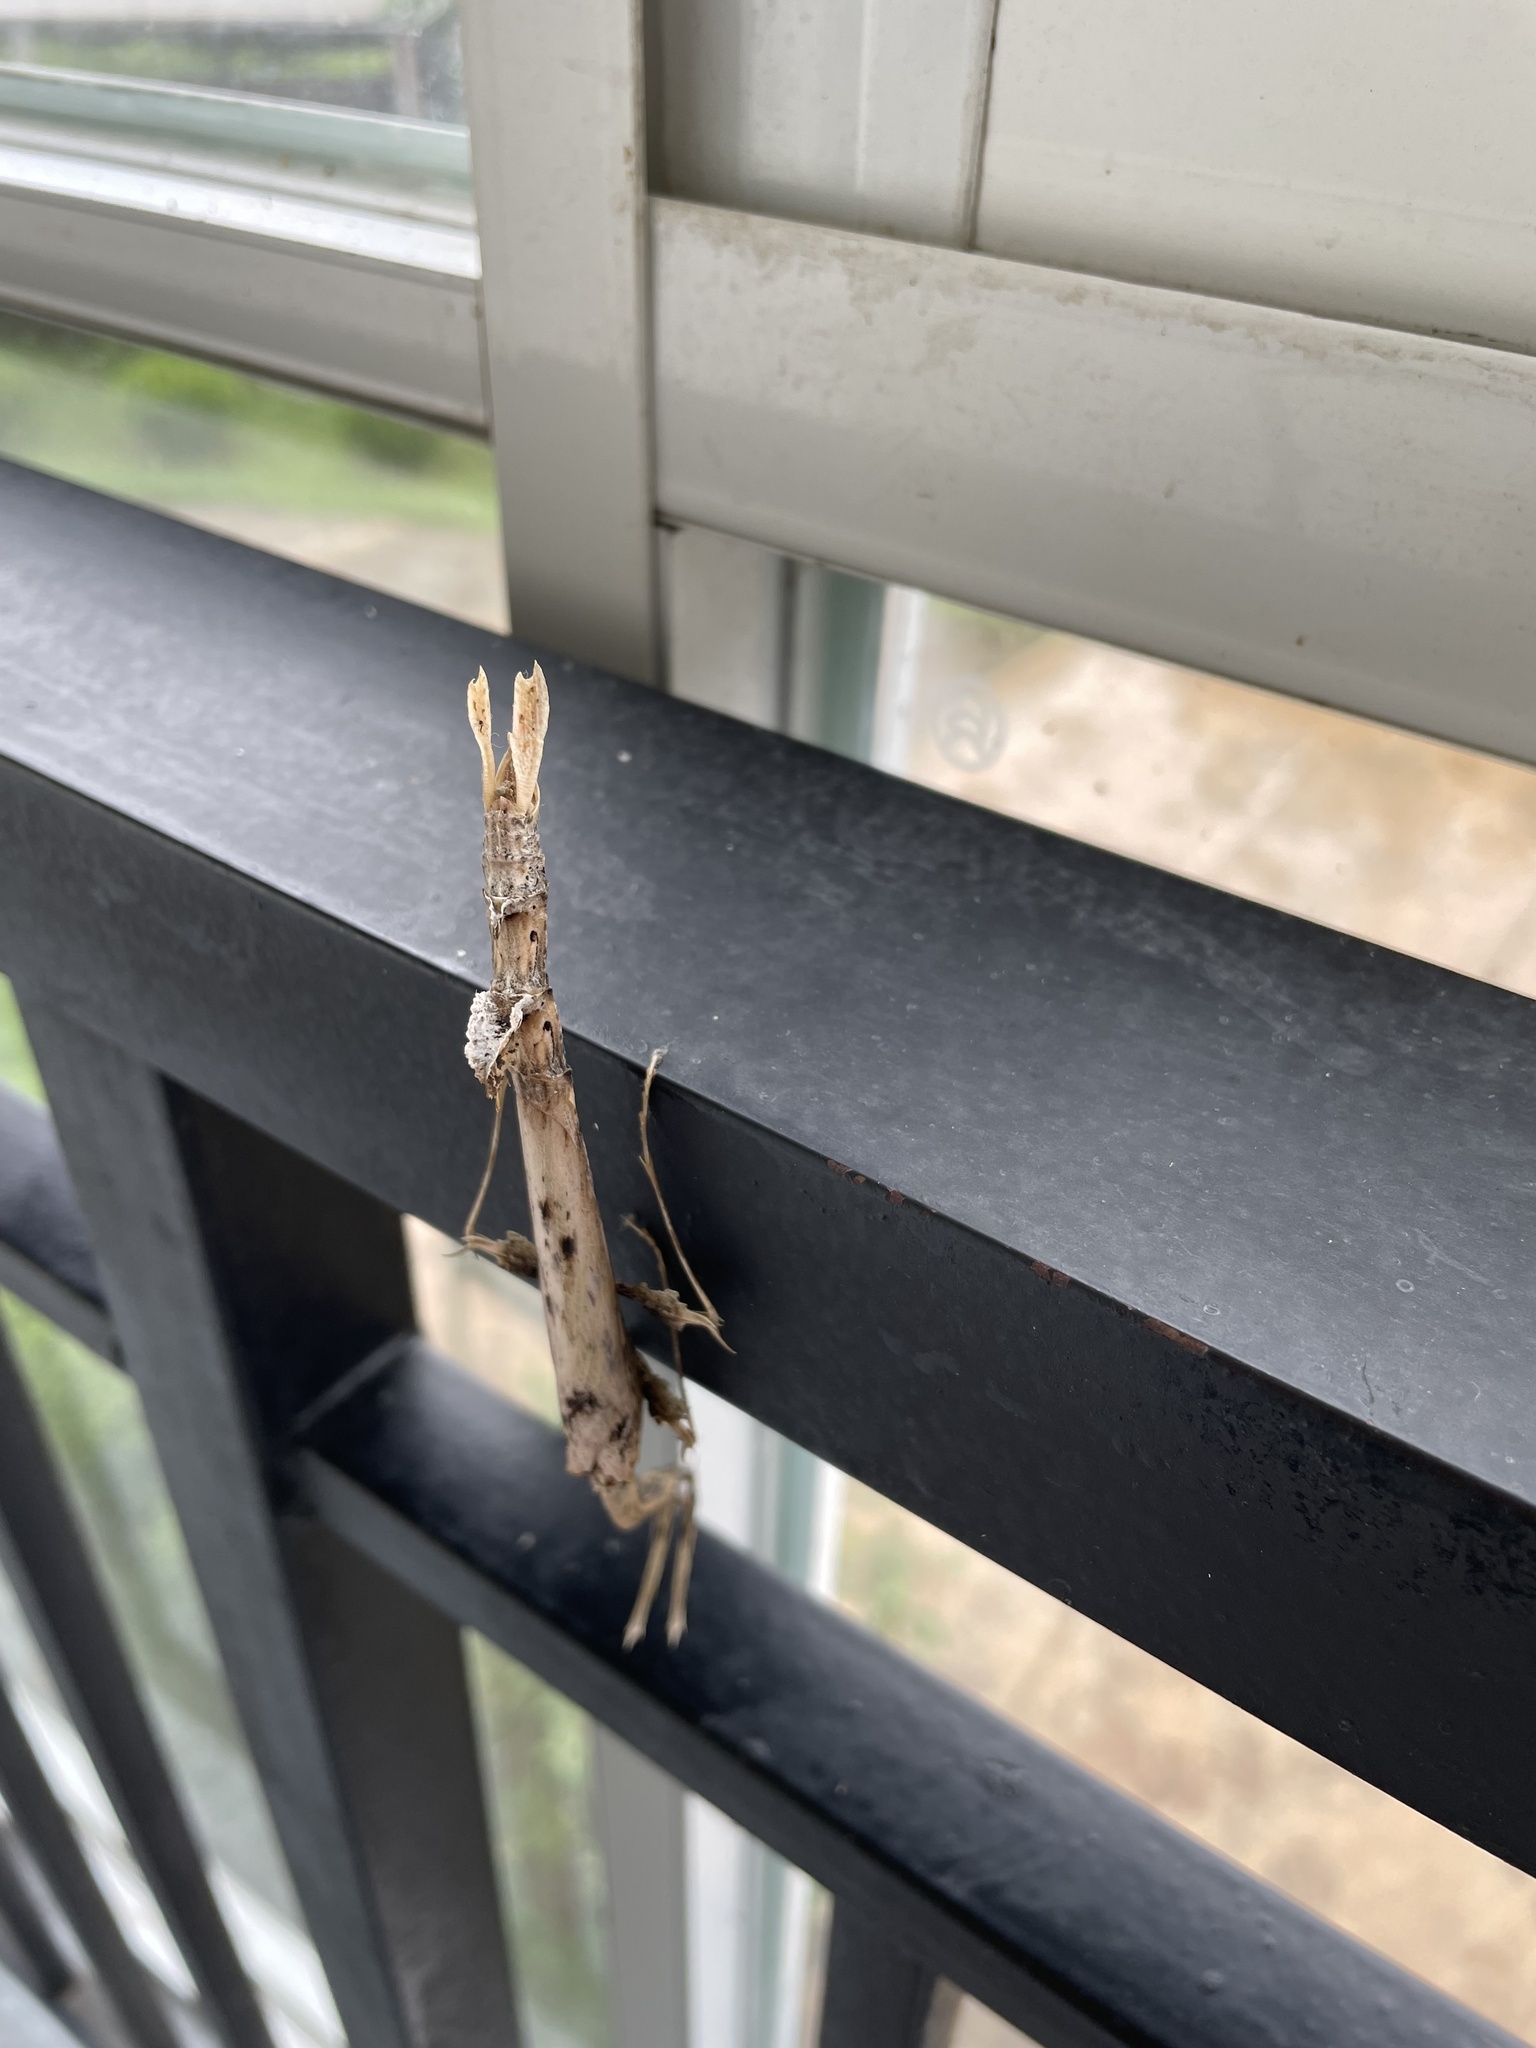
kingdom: Animalia
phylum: Arthropoda
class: Insecta
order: Mantodea
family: Toxoderidae
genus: Toxodera
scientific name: Toxodera maculata
